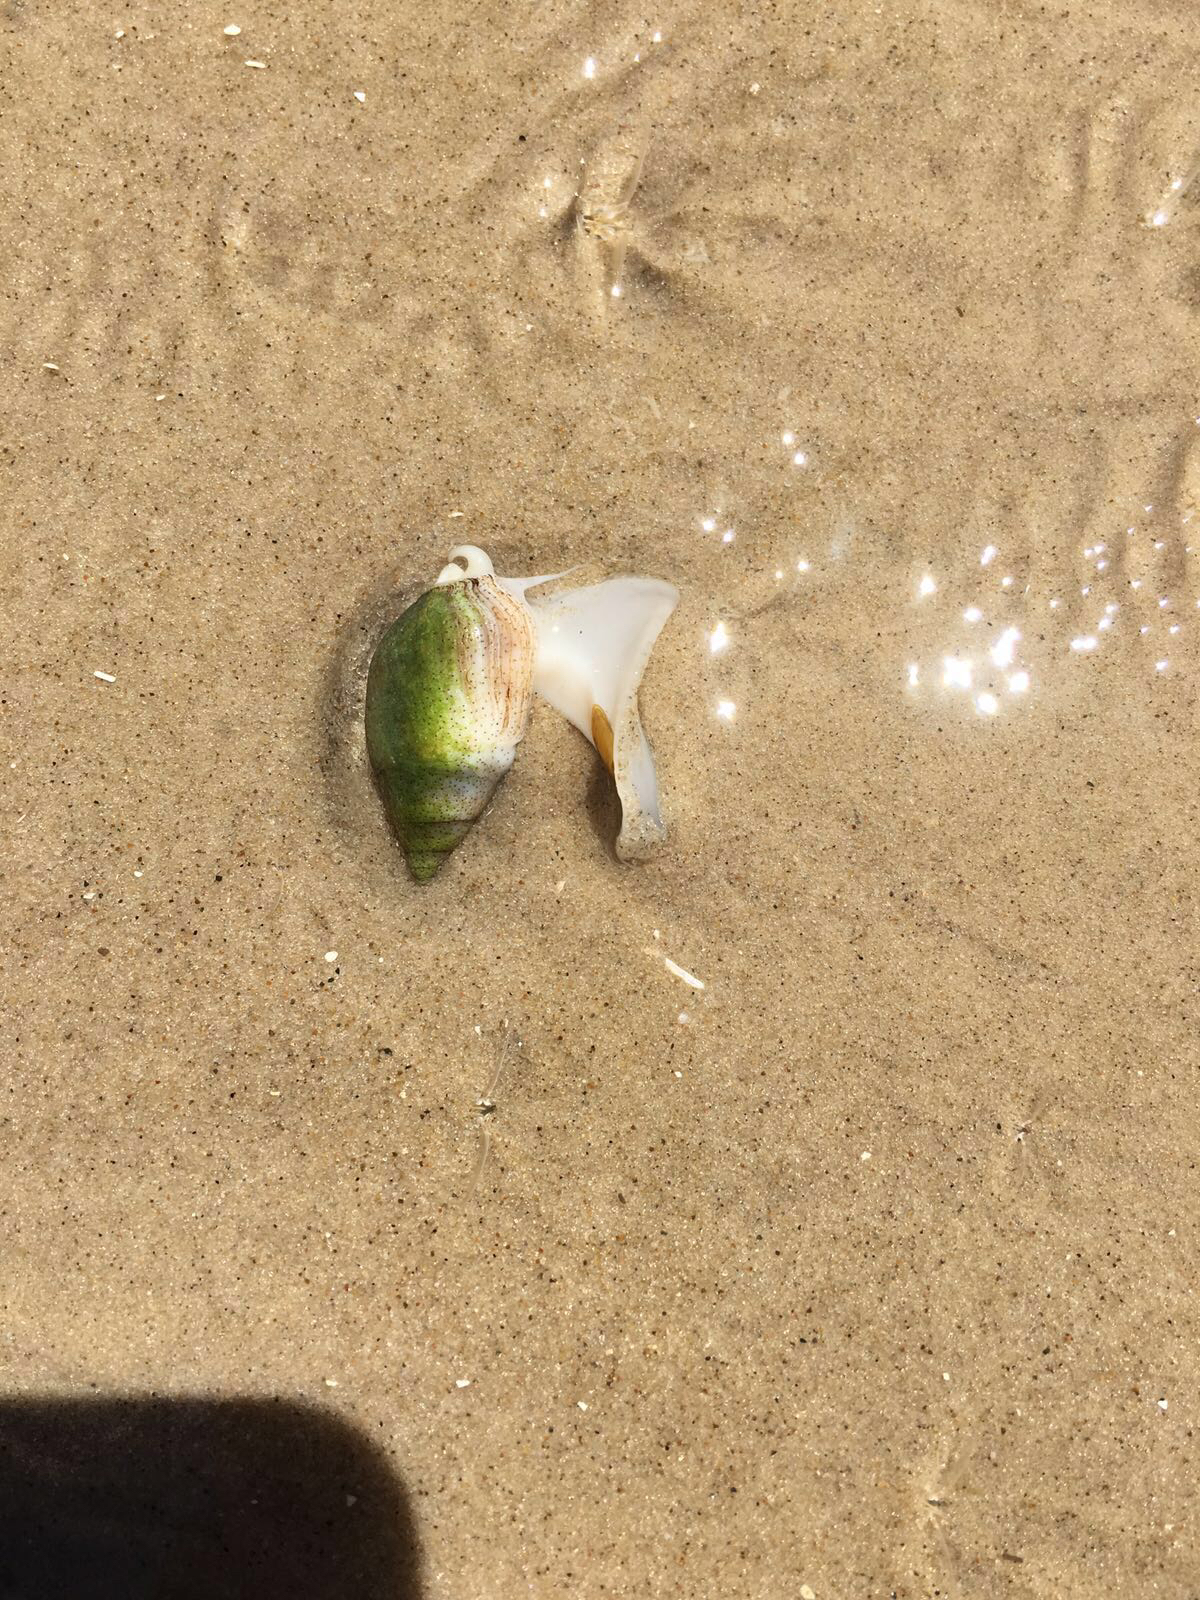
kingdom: Animalia
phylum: Mollusca
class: Gastropoda
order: Neogastropoda
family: Buccinanopsidae
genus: Buccinastrum
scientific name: Buccinastrum duartei
